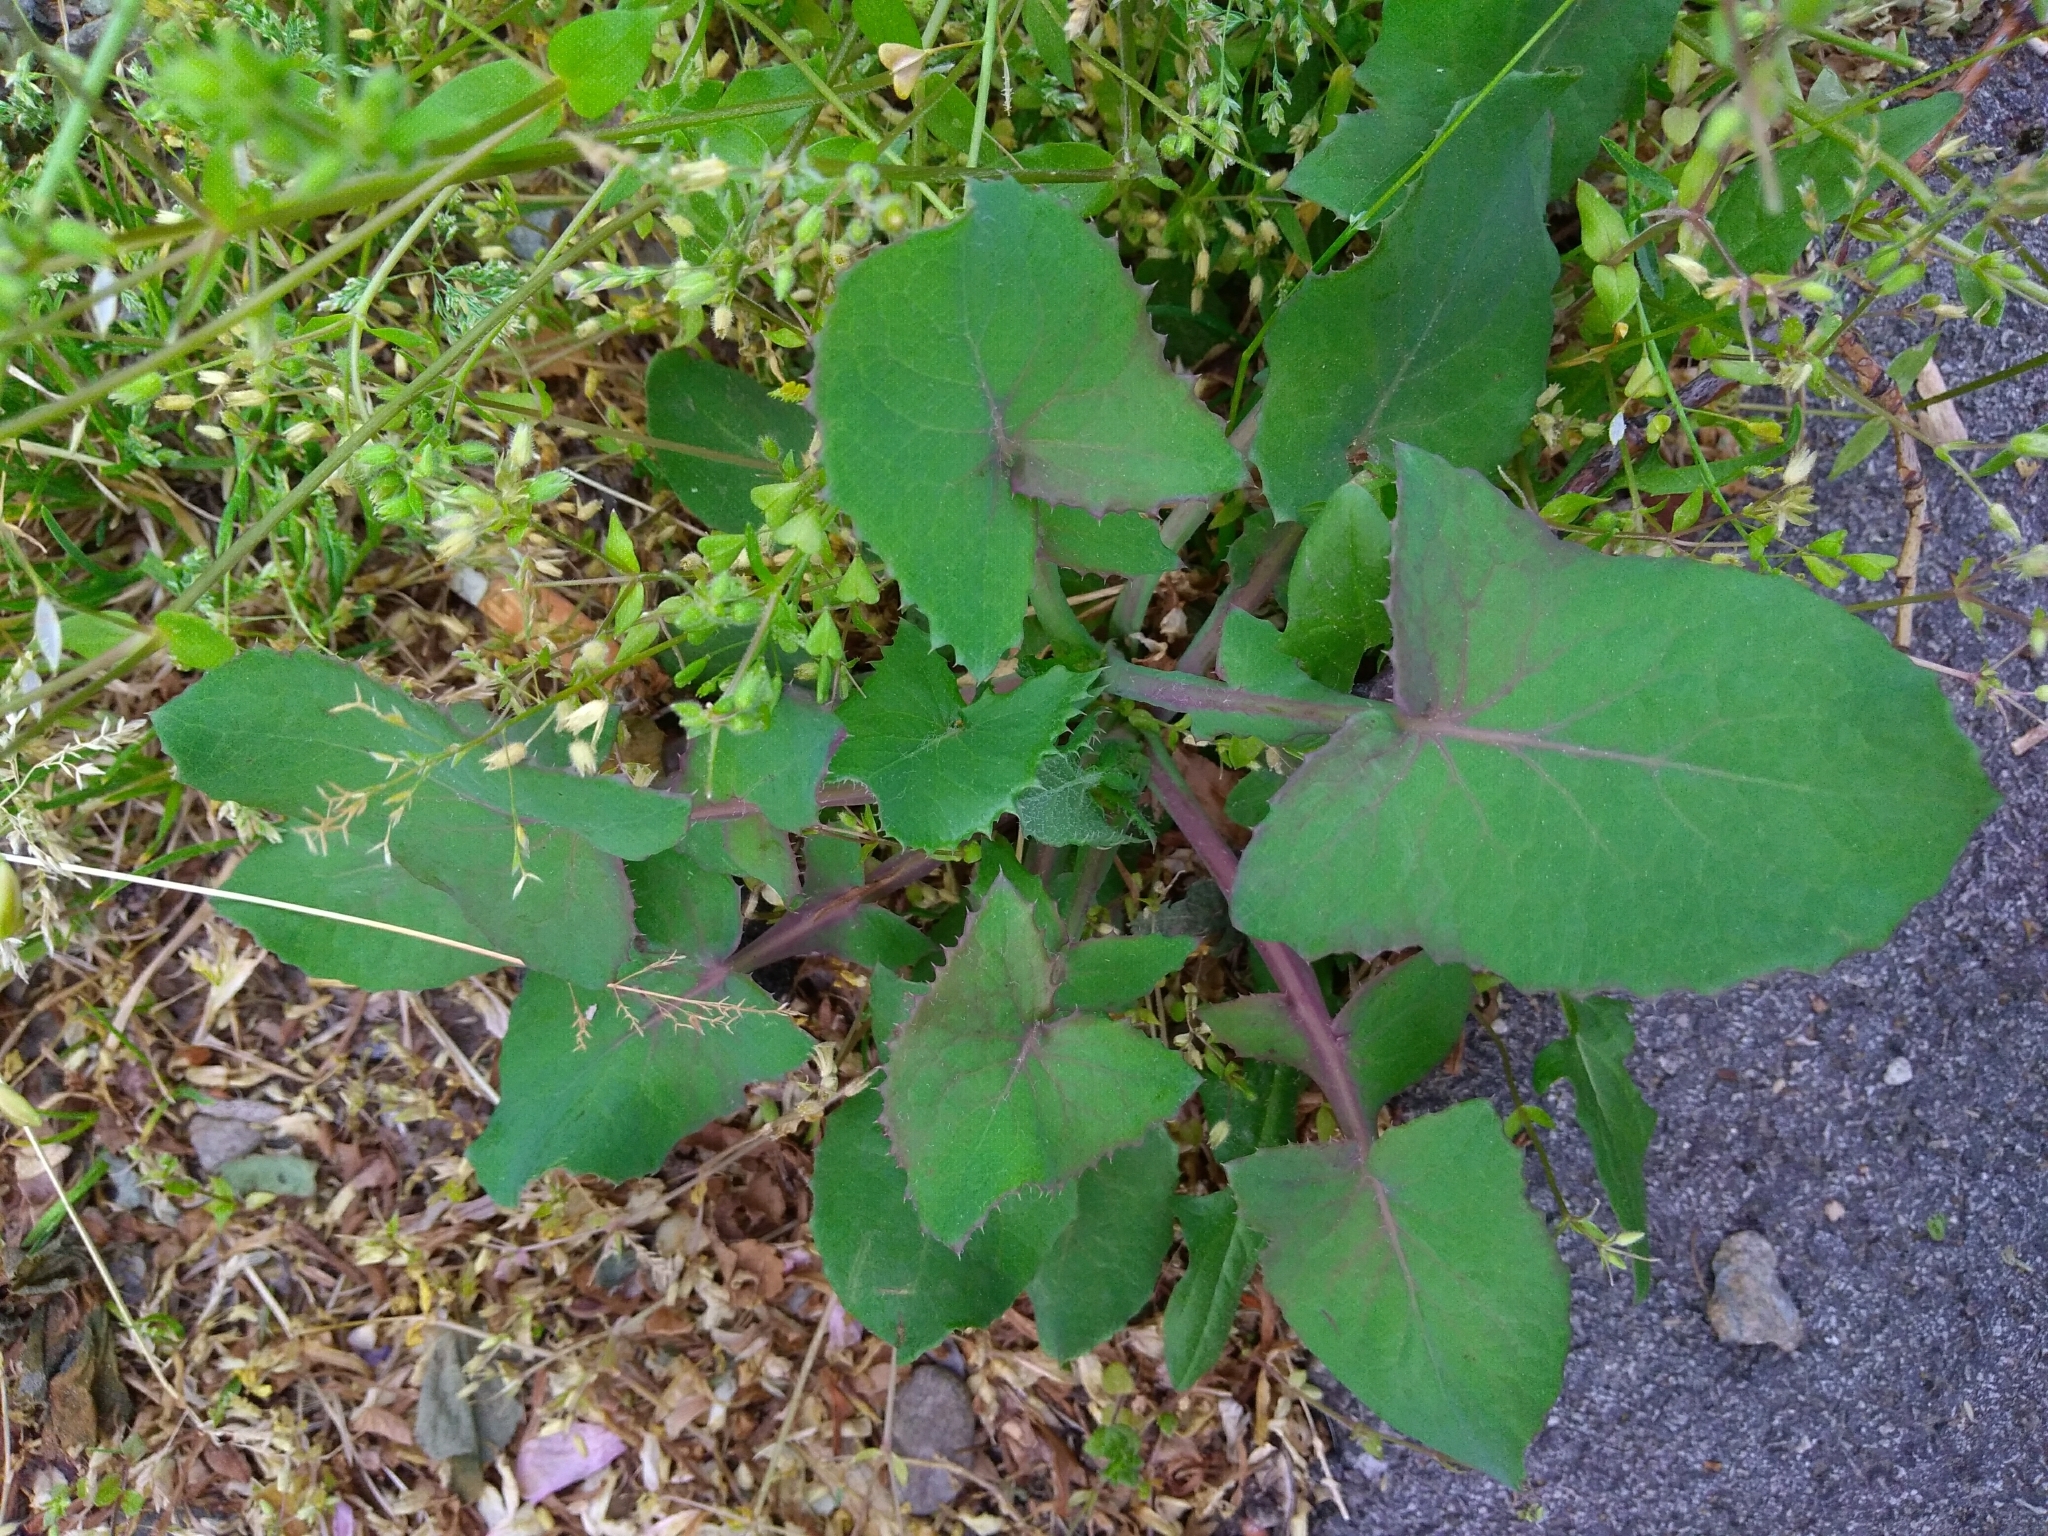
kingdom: Plantae
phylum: Tracheophyta
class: Magnoliopsida
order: Asterales
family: Asteraceae
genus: Sonchus
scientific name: Sonchus oleraceus
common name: Common sowthistle
